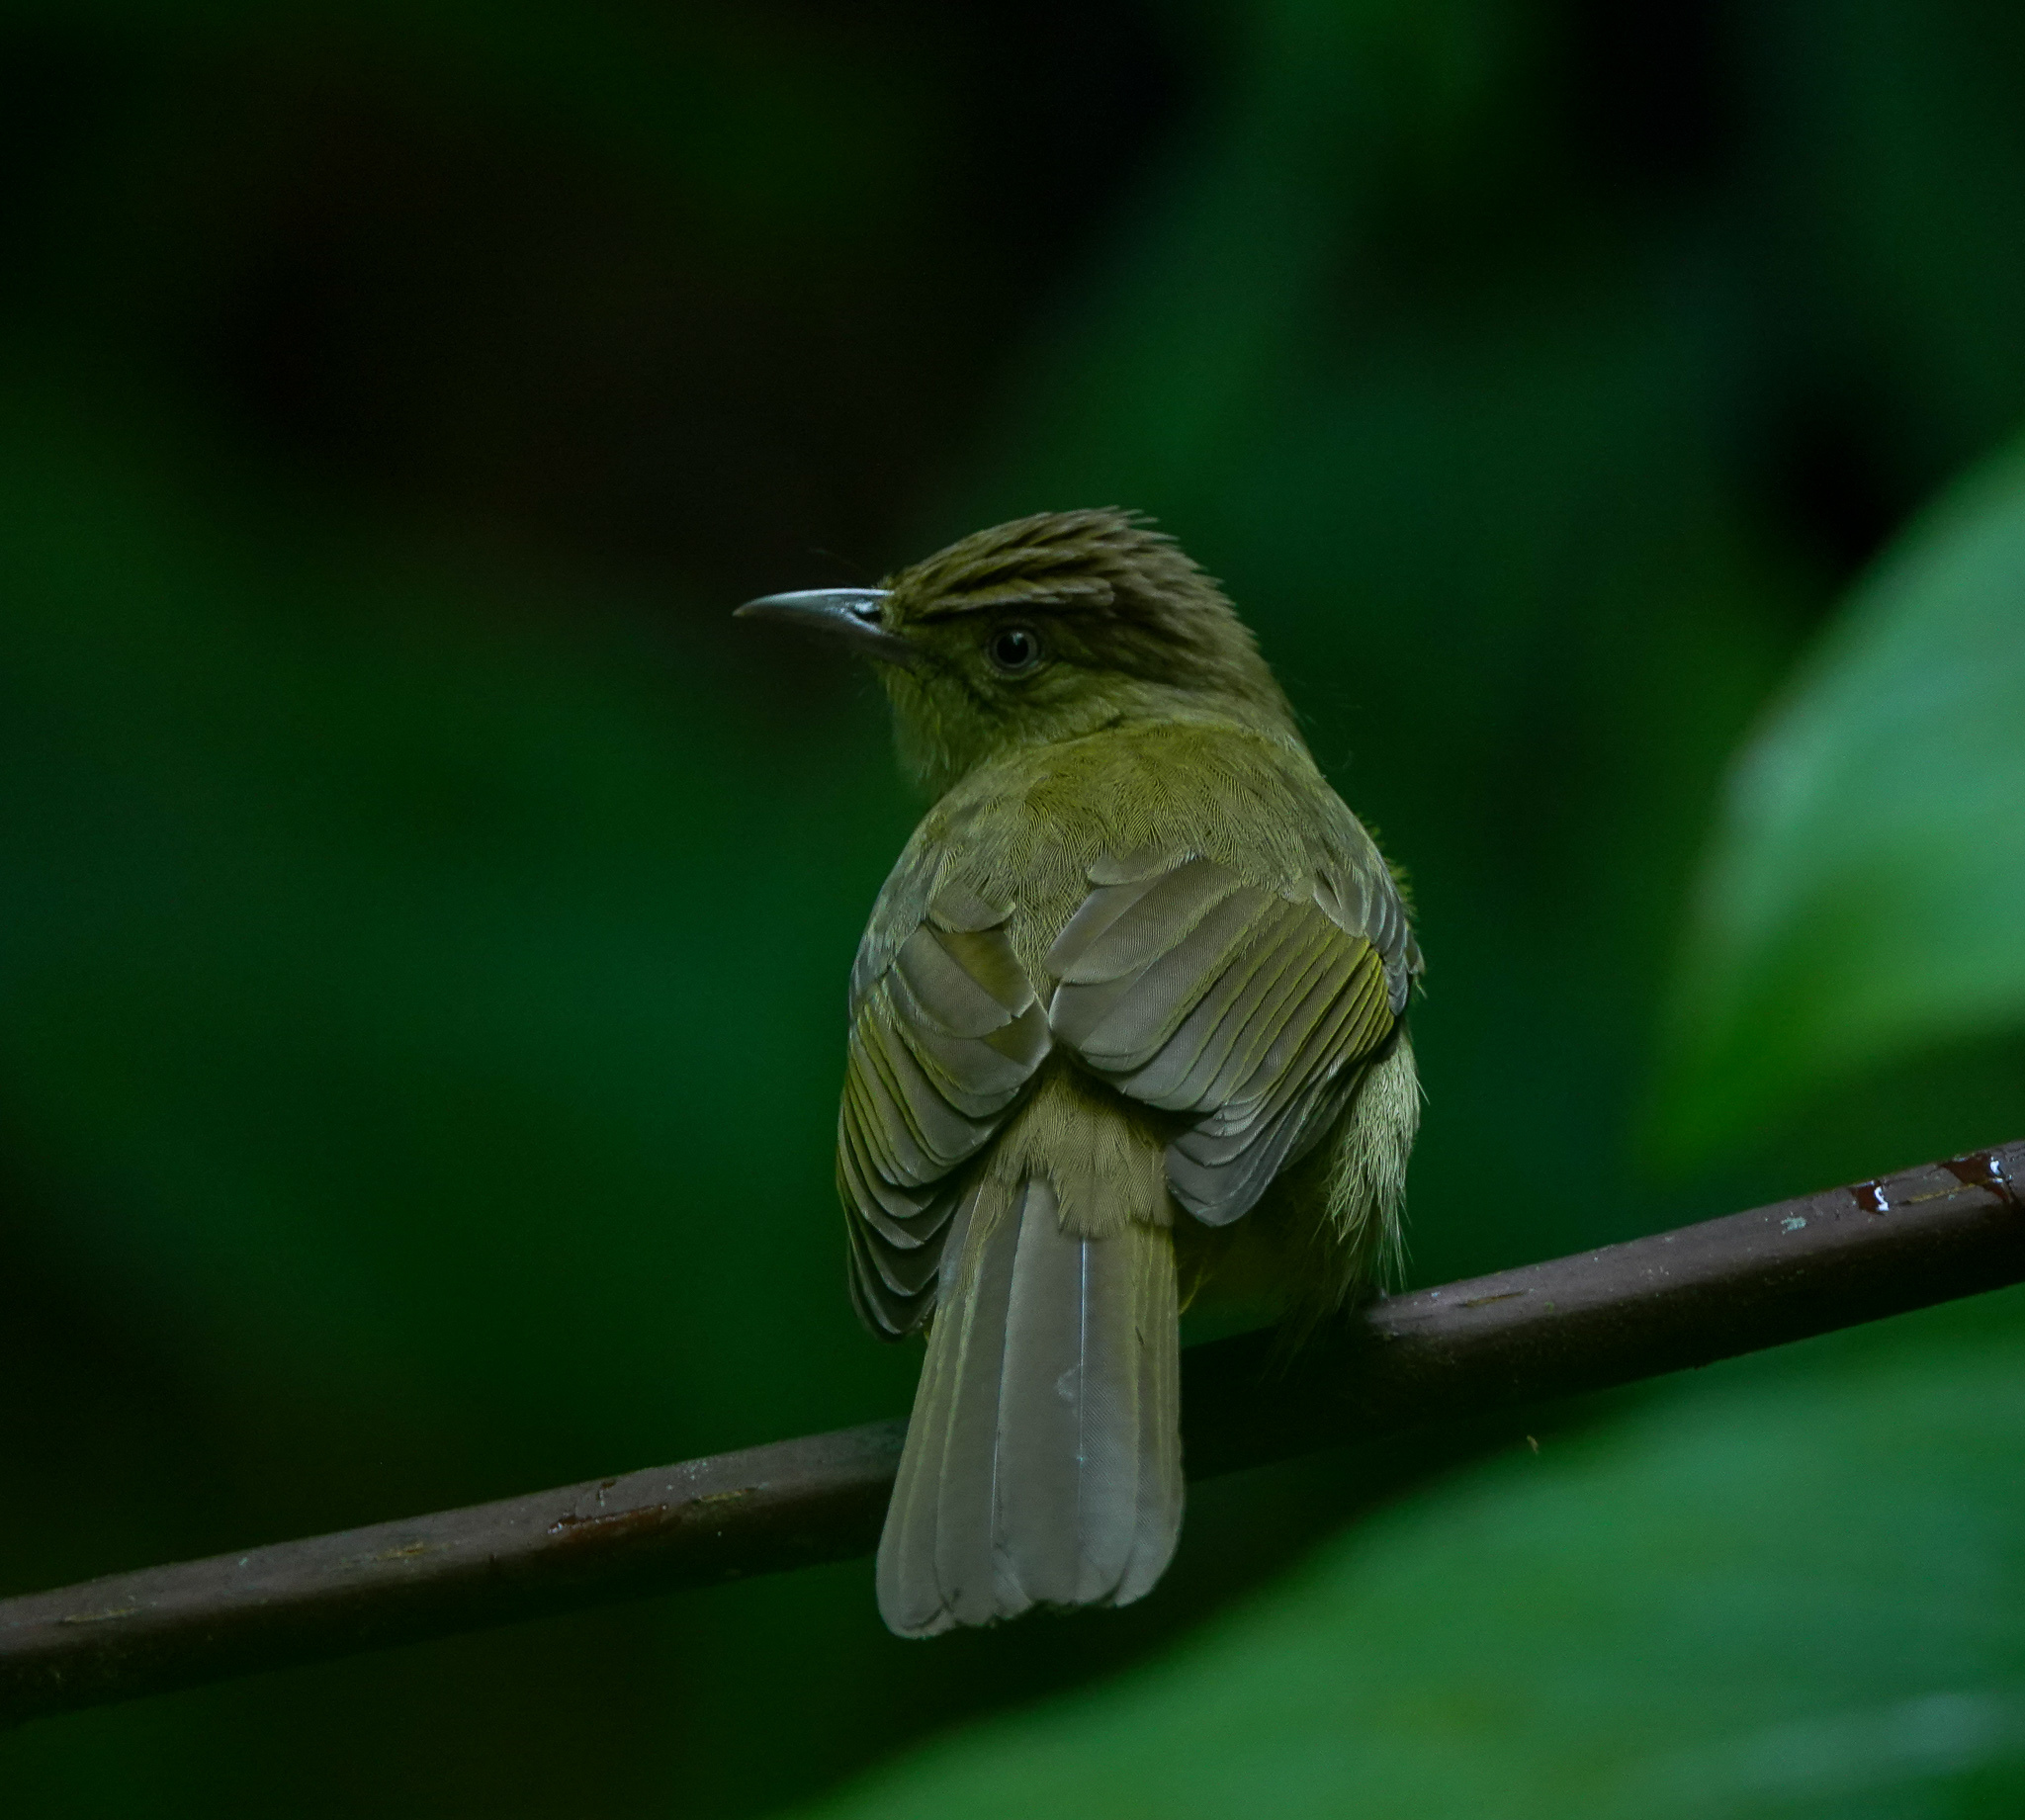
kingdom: Animalia
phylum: Chordata
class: Aves
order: Passeriformes
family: Pycnonotidae
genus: Iole
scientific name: Iole virescens
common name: Olive bulbul
